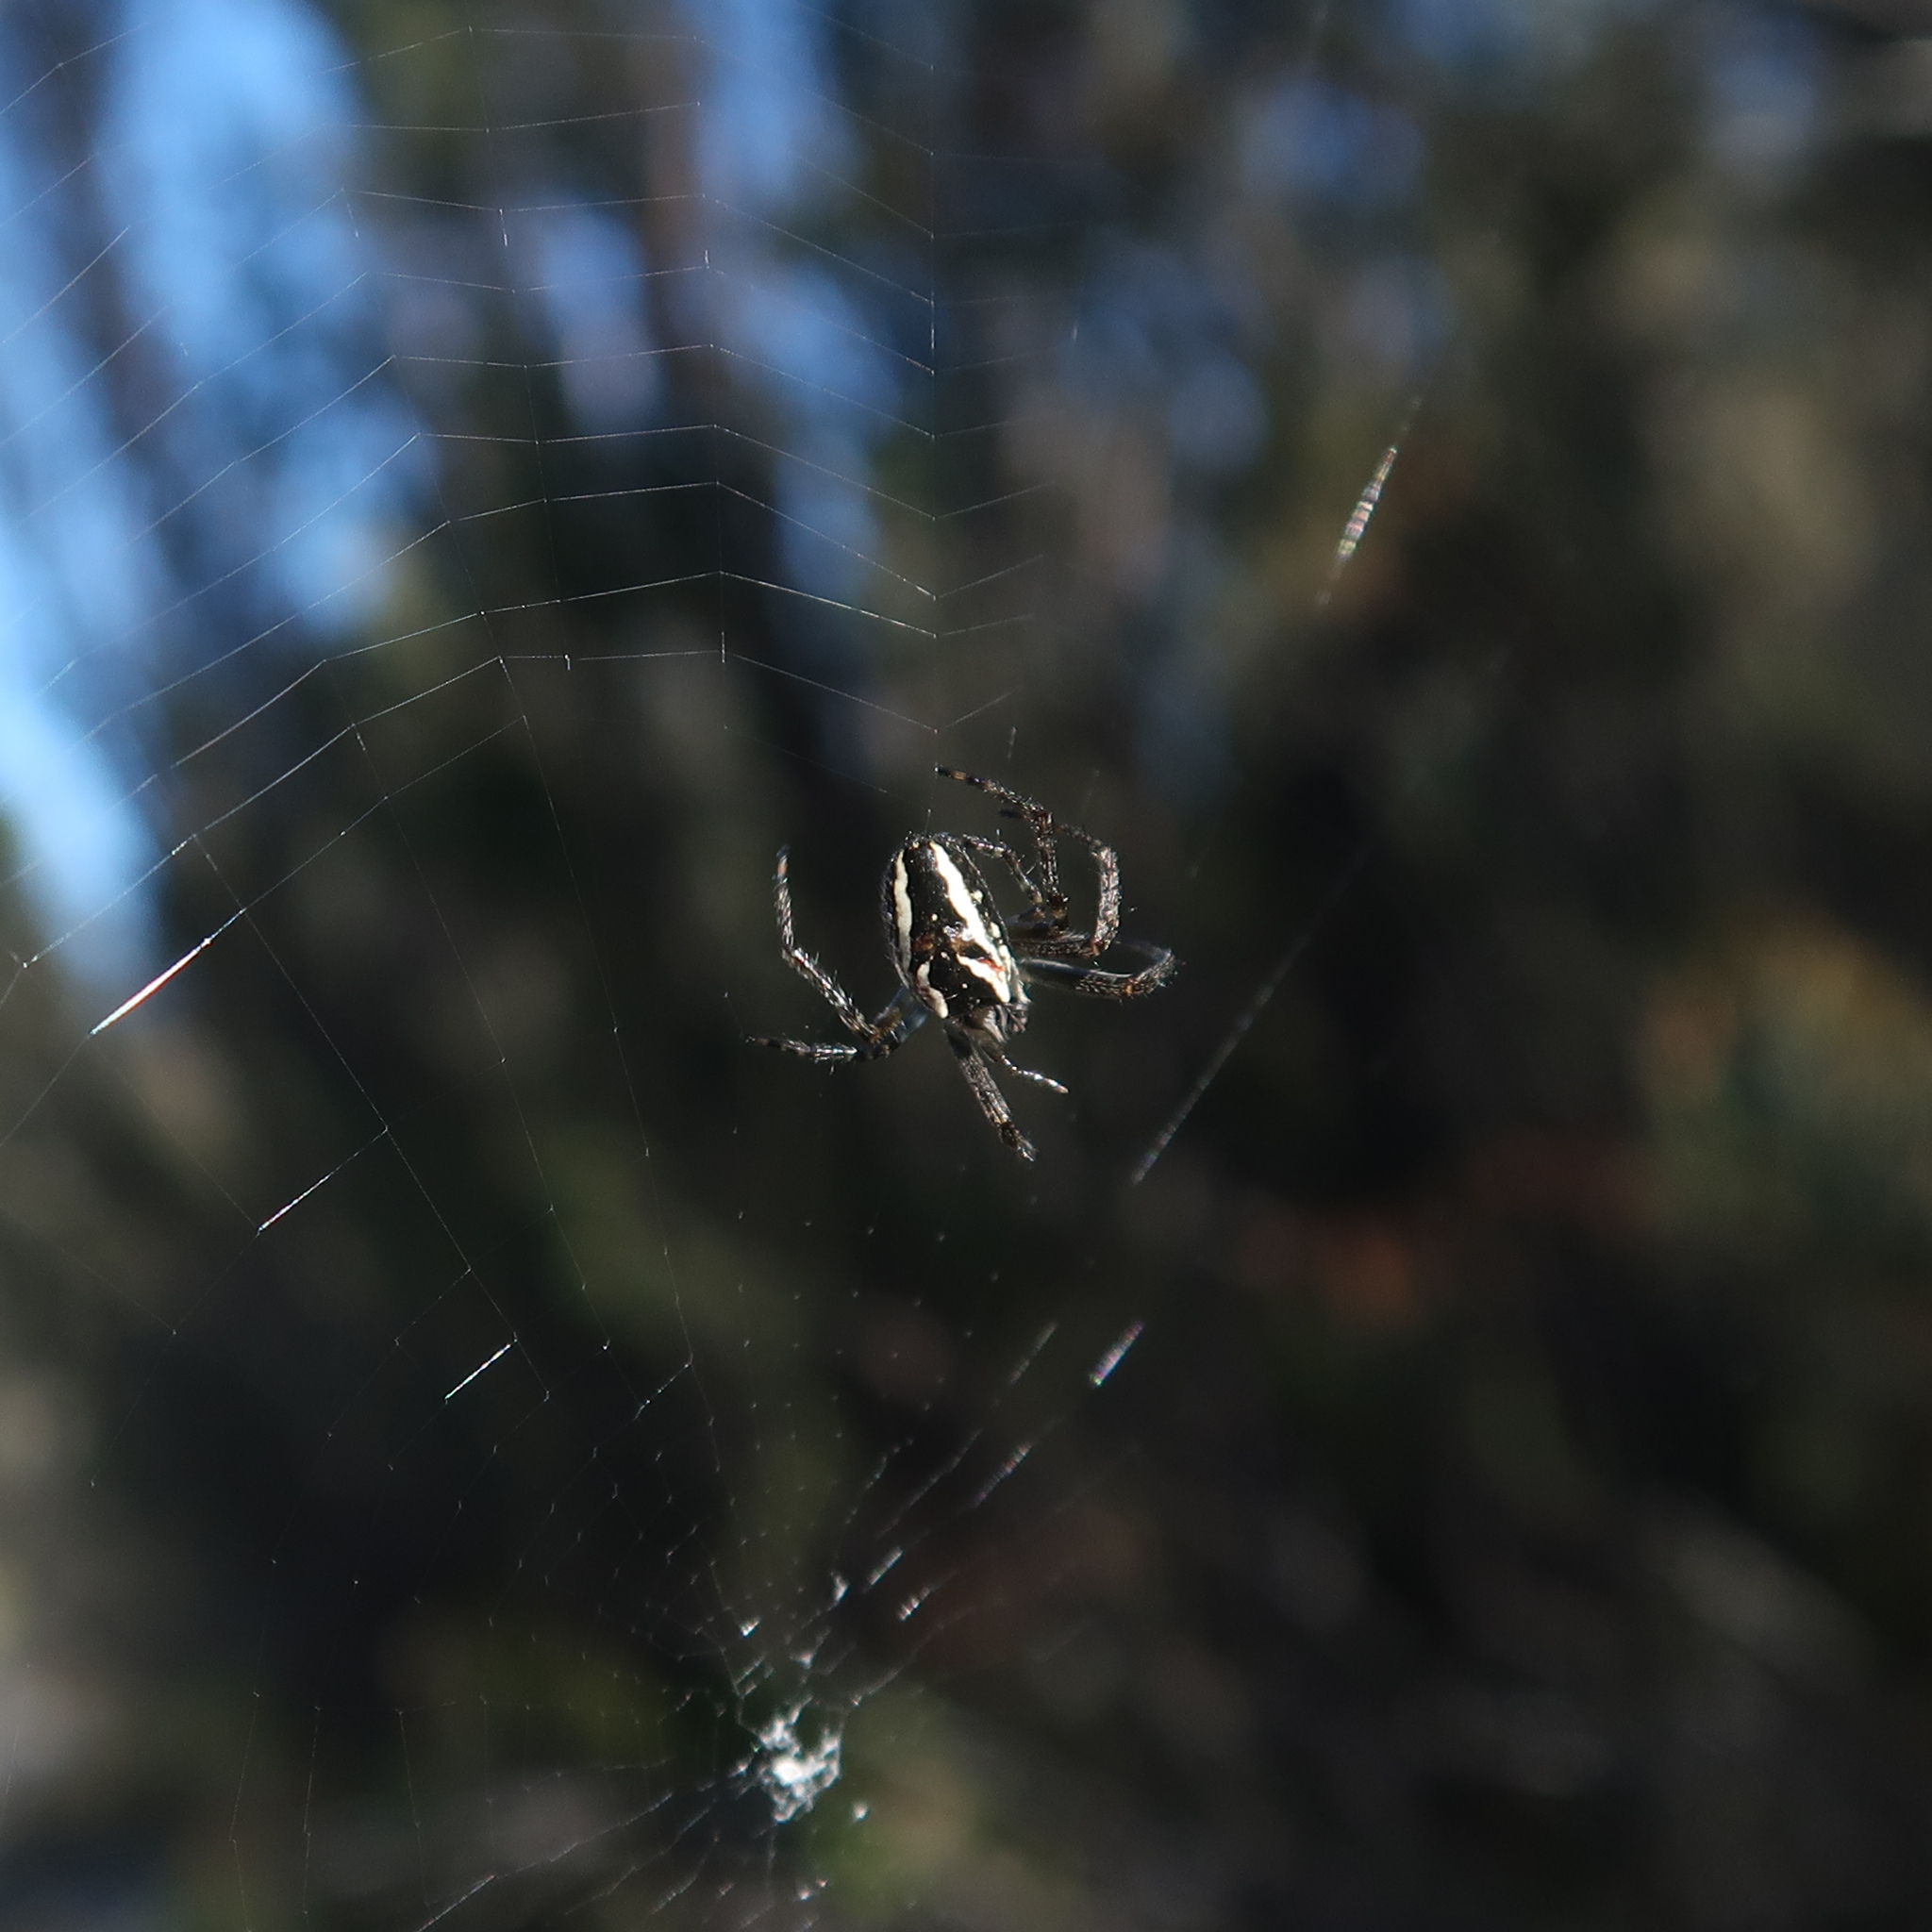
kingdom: Animalia
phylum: Arthropoda
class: Arachnida
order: Araneae
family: Araneidae
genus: Plebs
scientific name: Plebs bradleyi
